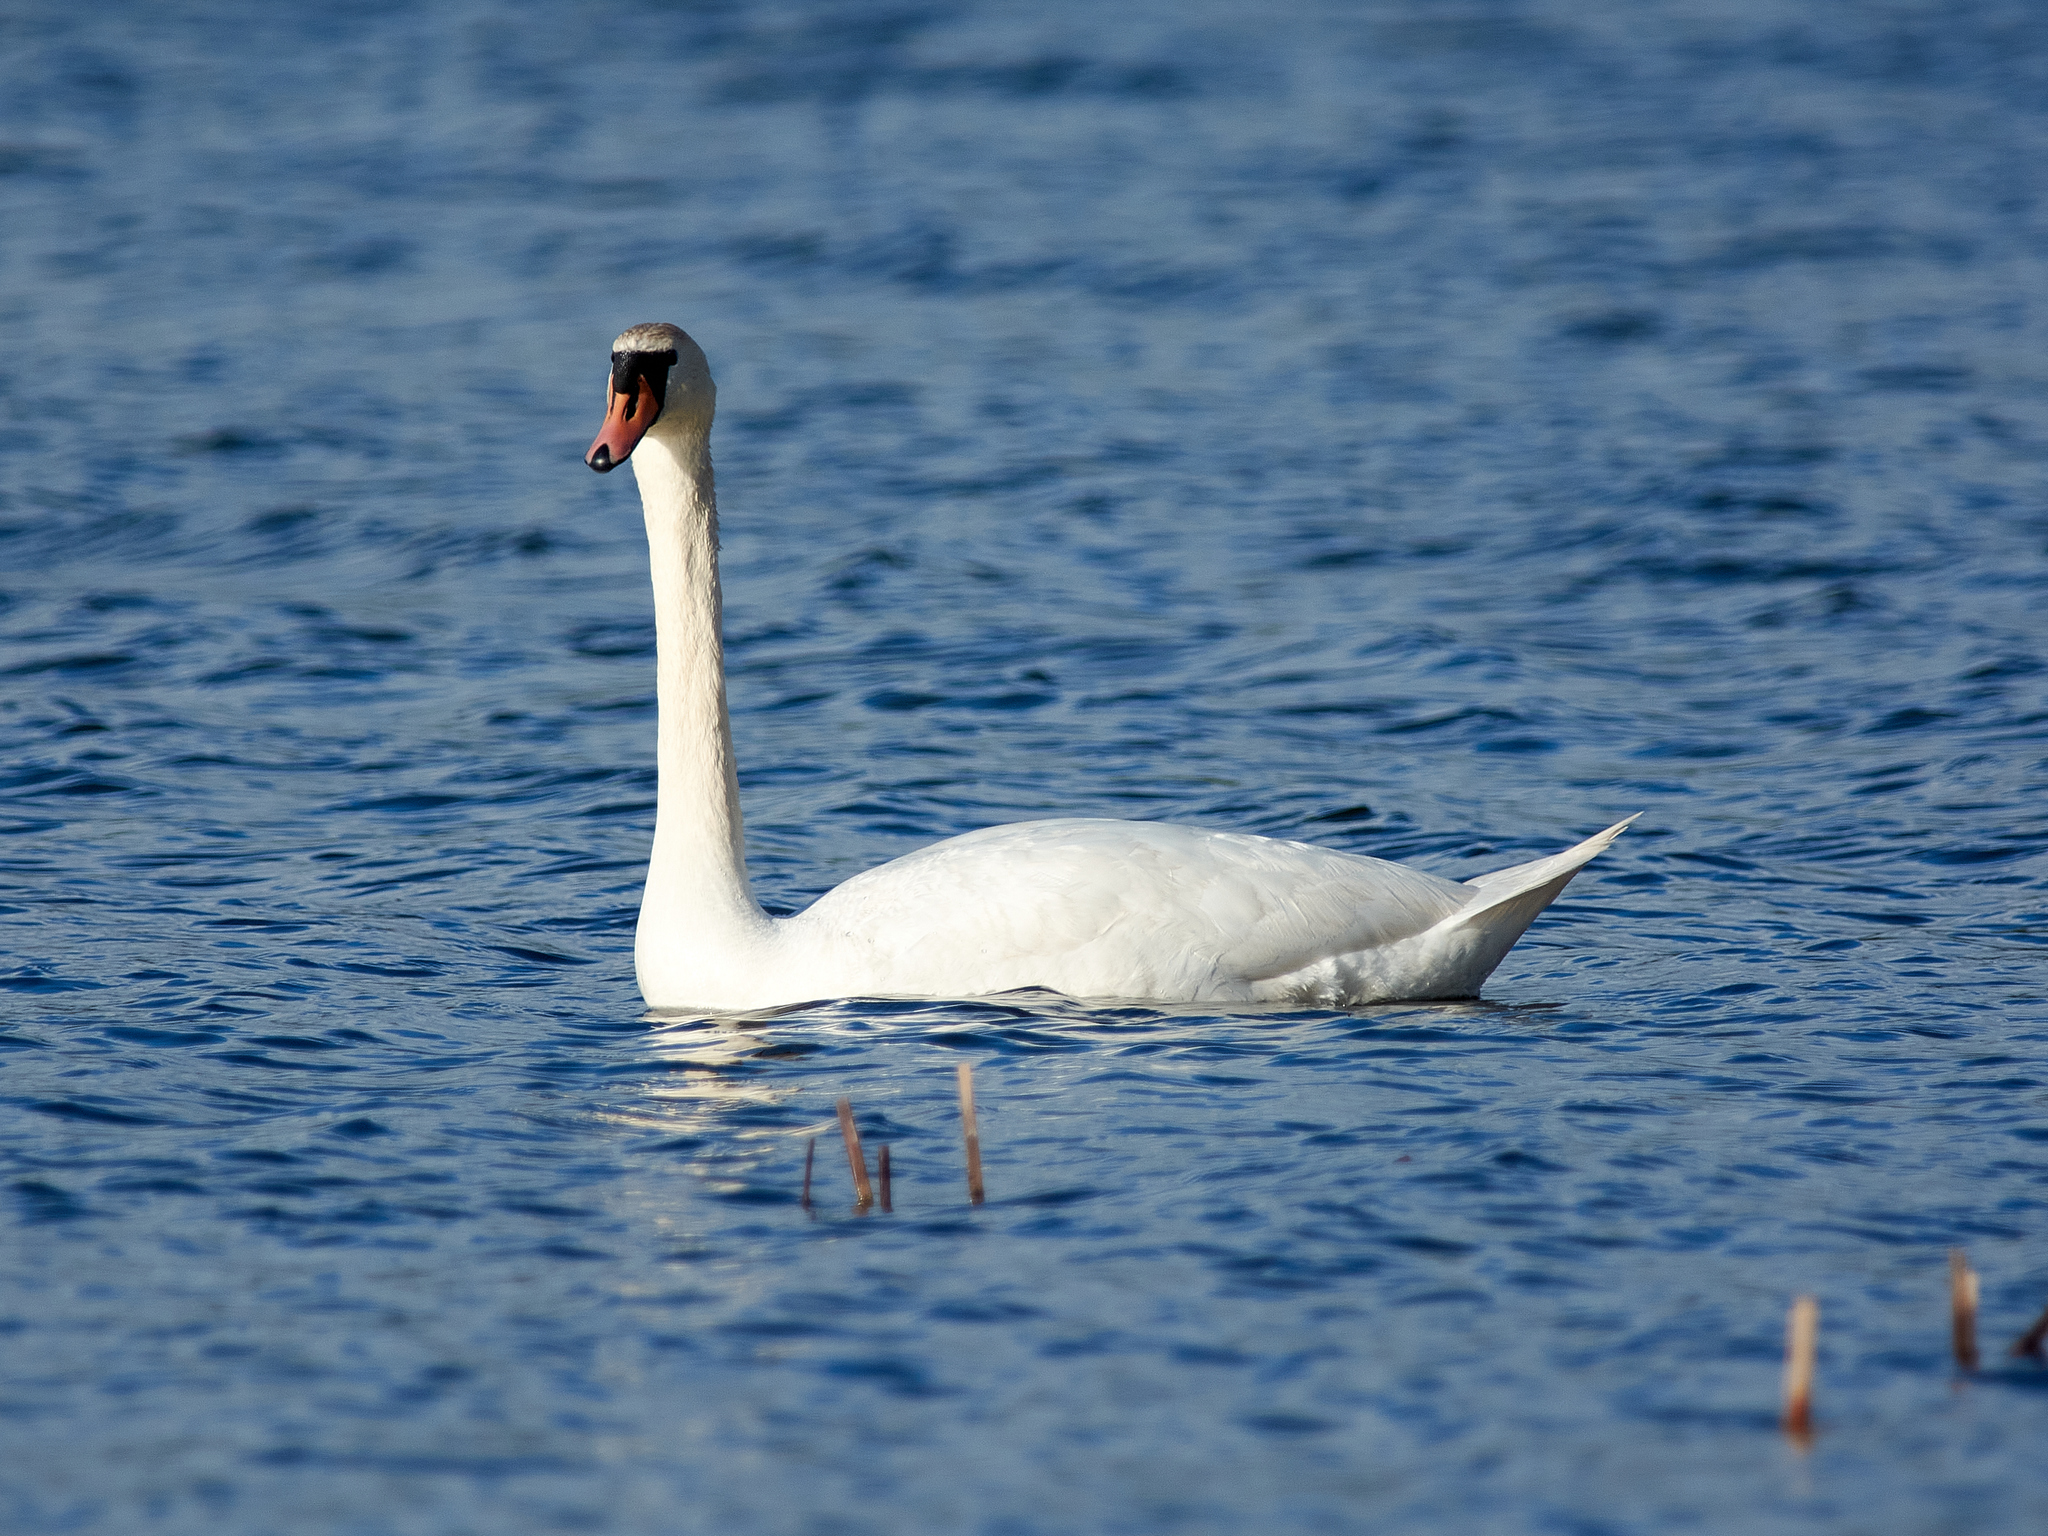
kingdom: Animalia
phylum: Chordata
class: Aves
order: Anseriformes
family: Anatidae
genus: Cygnus
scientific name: Cygnus olor
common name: Mute swan
